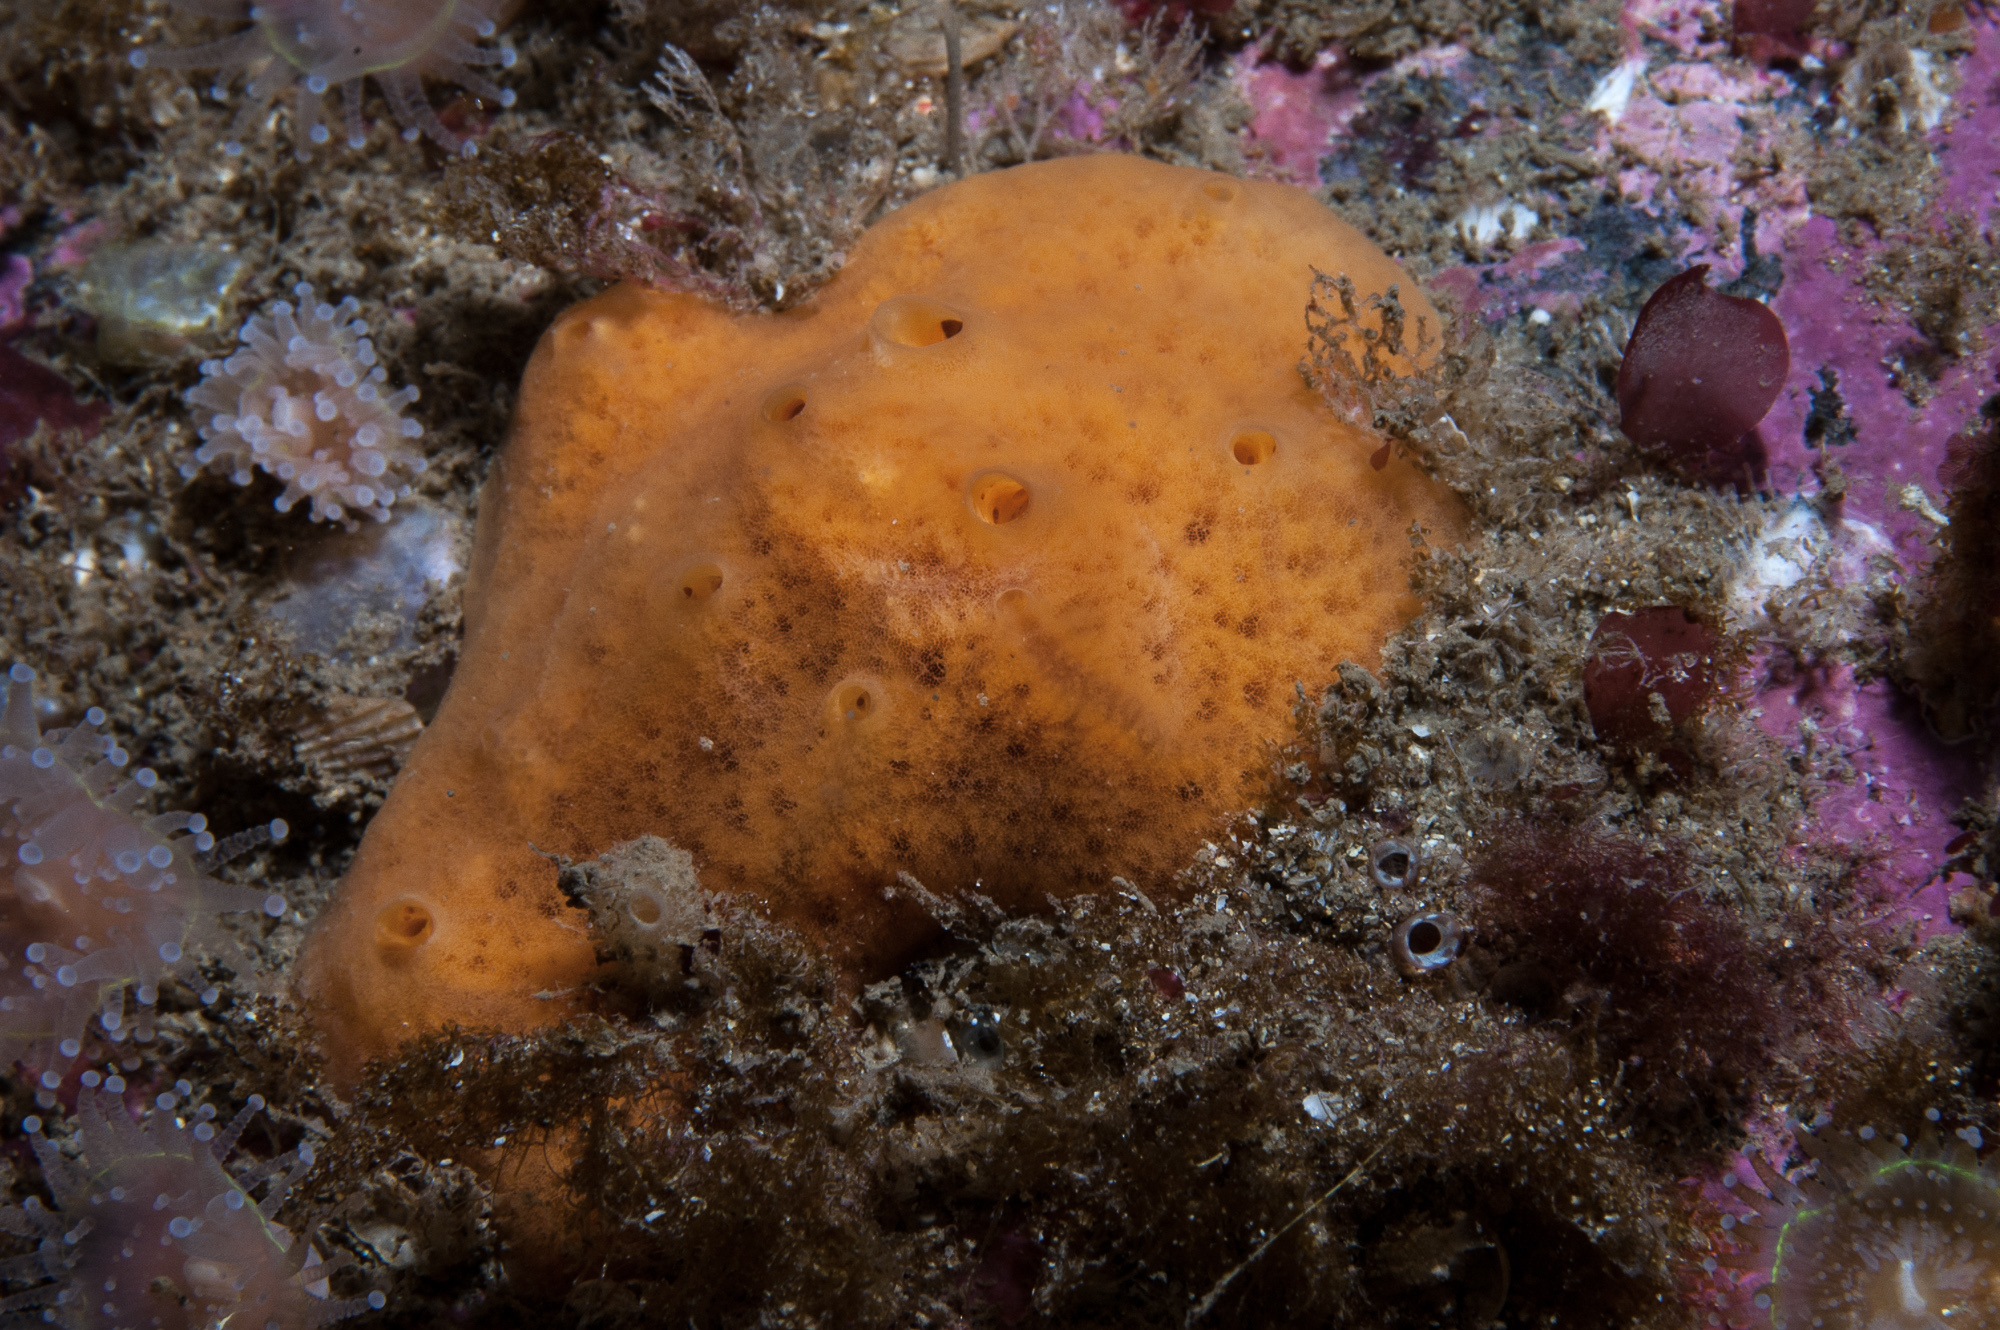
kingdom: Animalia
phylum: Porifera
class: Demospongiae
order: Poecilosclerida
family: Myxillidae
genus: Myxilla
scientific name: Myxilla fimbriata
